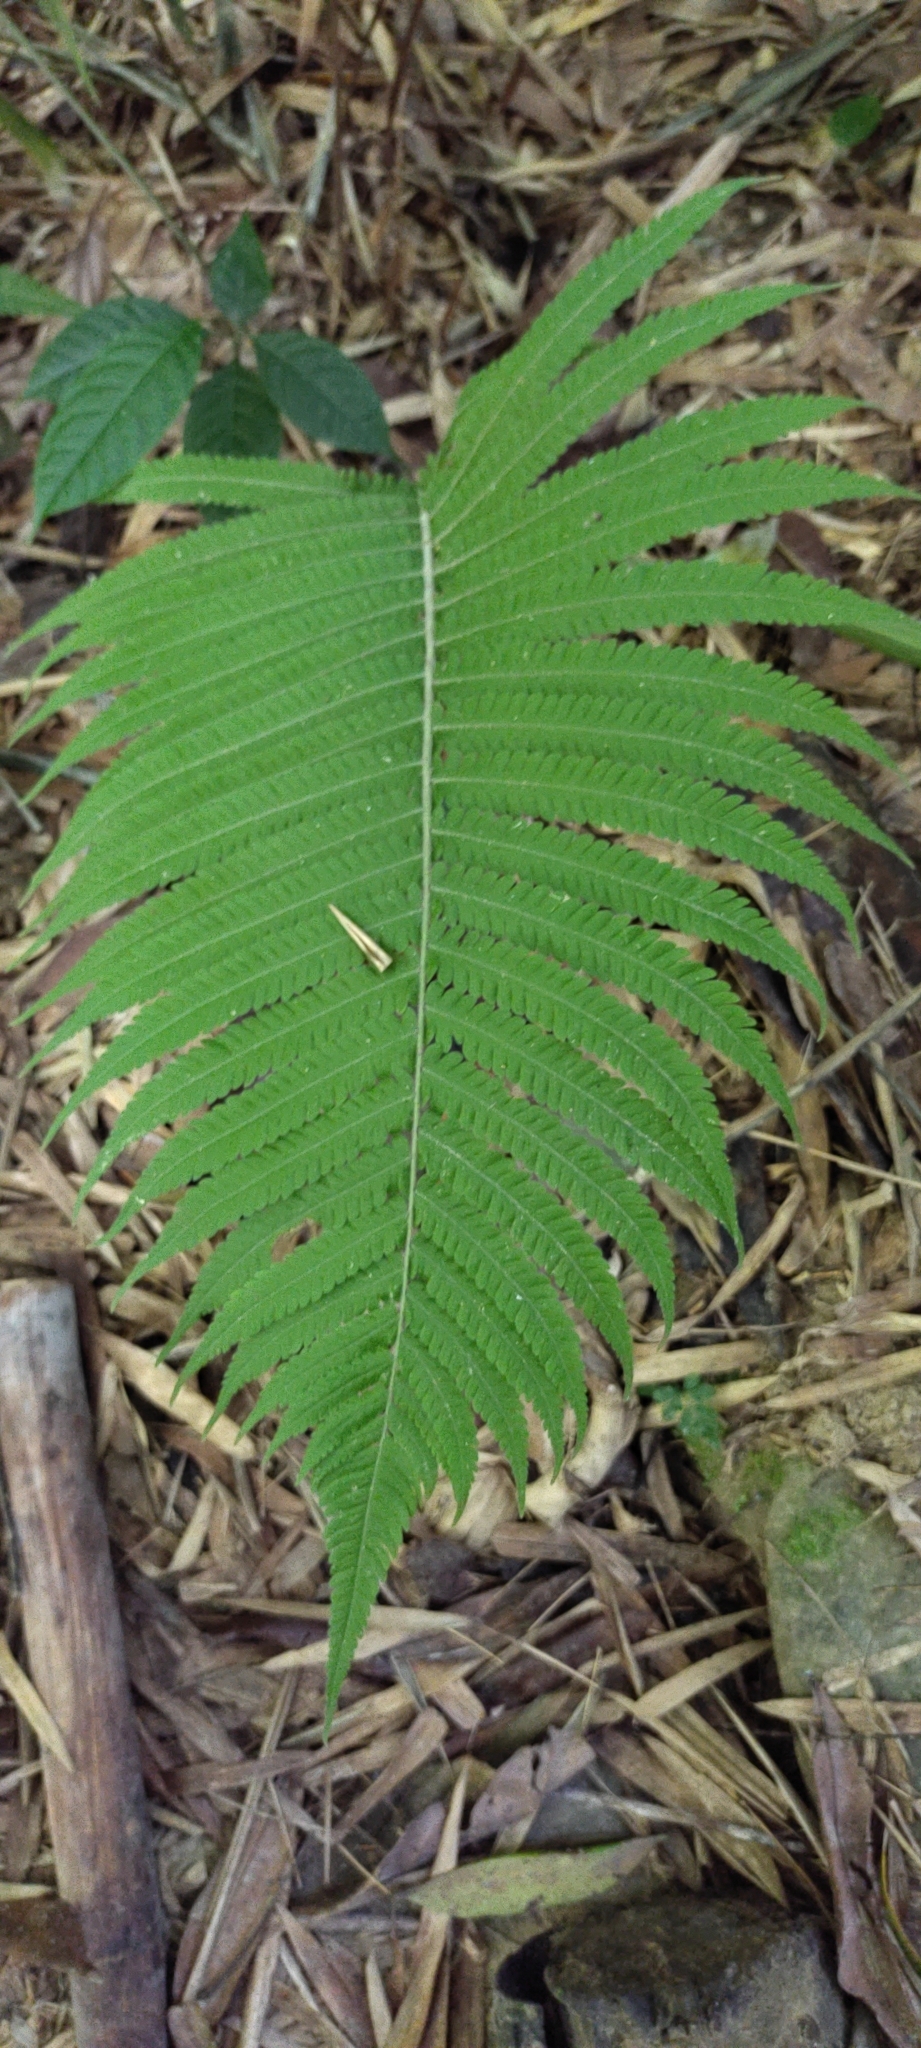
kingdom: Plantae
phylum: Tracheophyta
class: Polypodiopsida
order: Polypodiales
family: Thelypteridaceae
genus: Christella
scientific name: Christella parasitica
